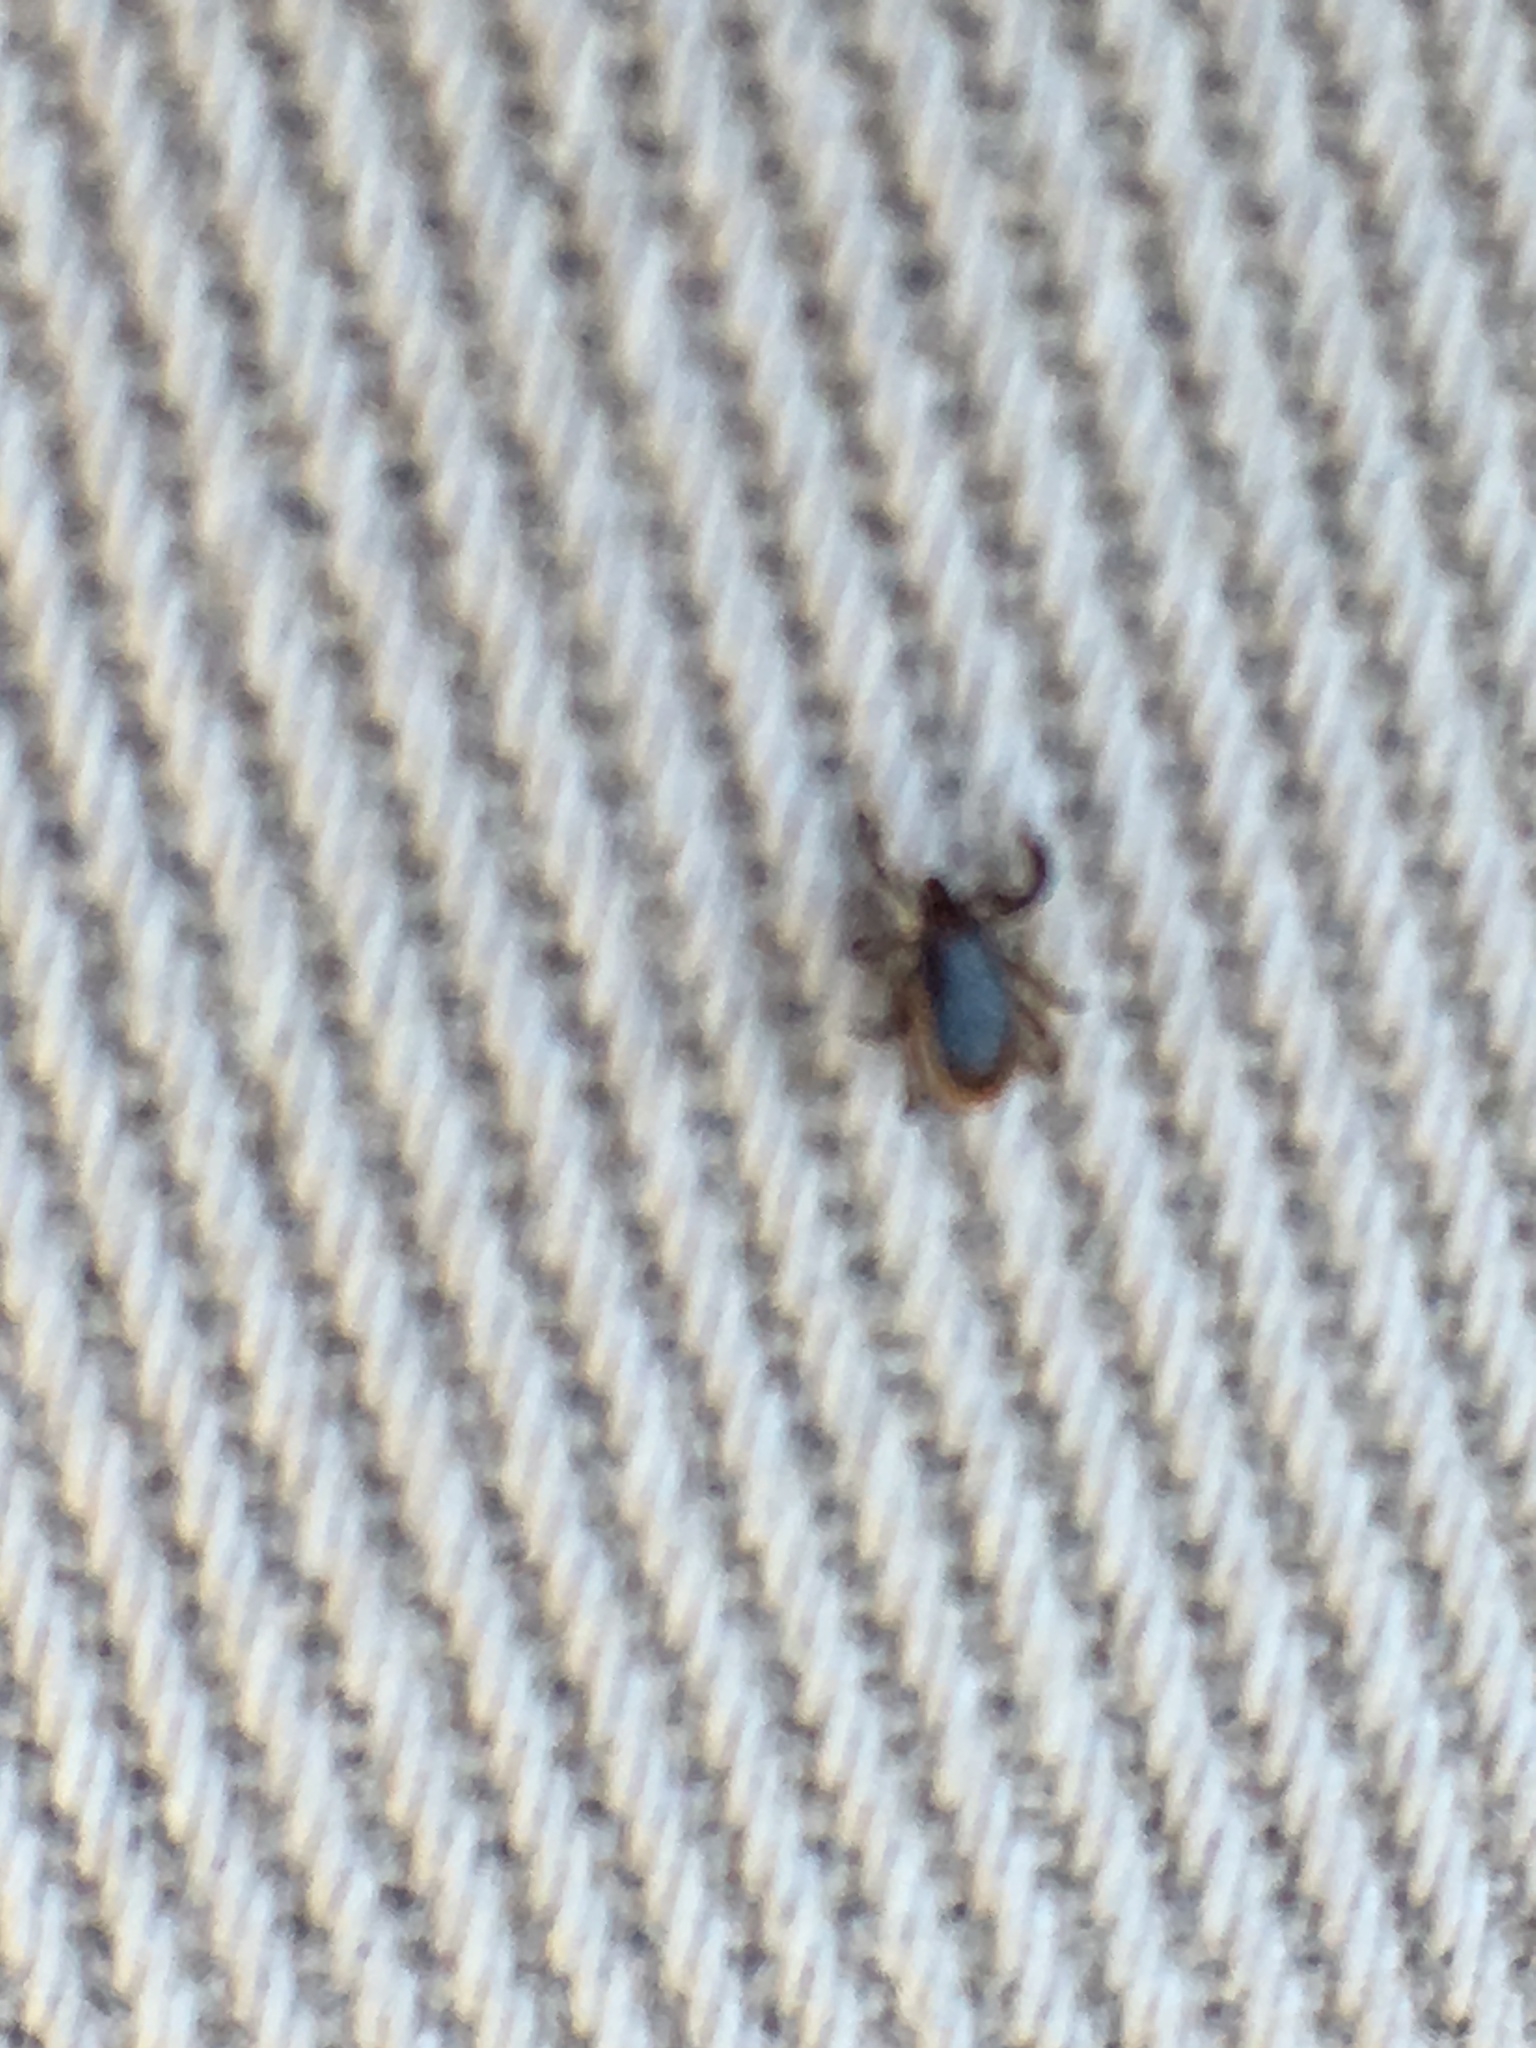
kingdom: Animalia
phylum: Arthropoda
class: Arachnida
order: Ixodida
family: Ixodidae
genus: Ixodes
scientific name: Ixodes scapularis
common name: Black legged tick
